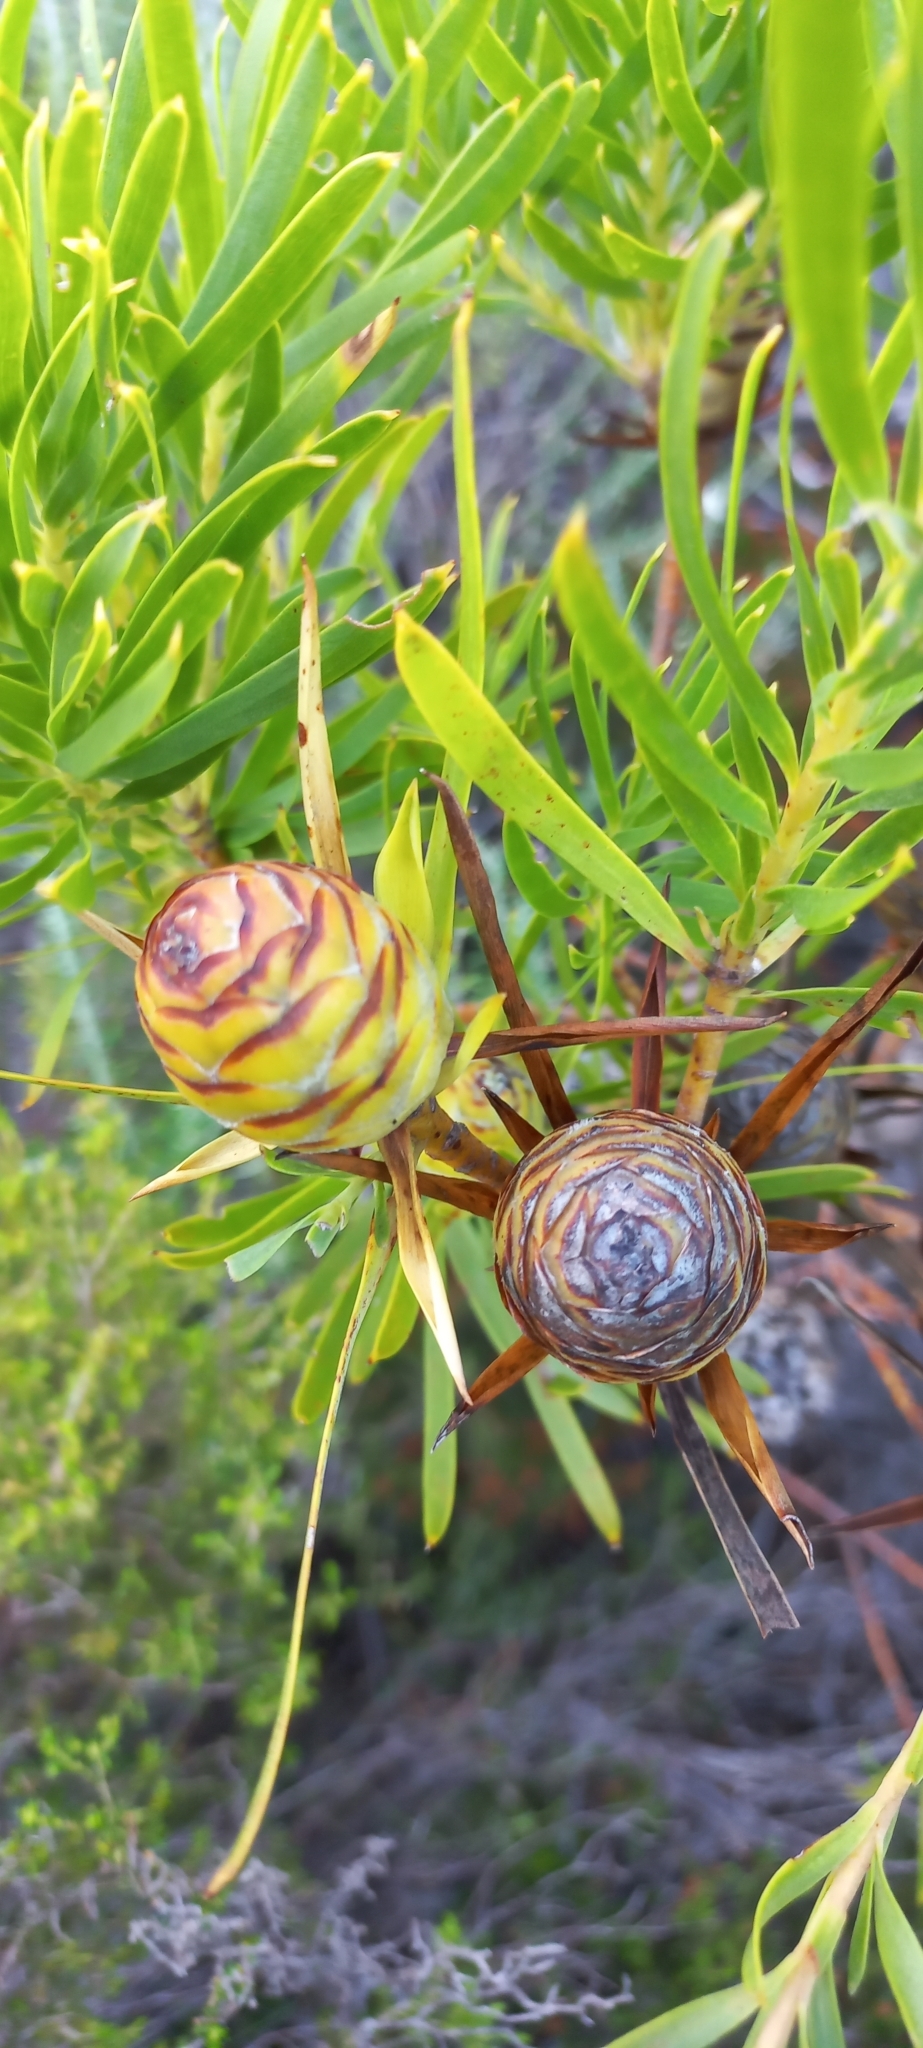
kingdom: Plantae
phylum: Tracheophyta
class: Magnoliopsida
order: Proteales
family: Proteaceae
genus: Leucadendron
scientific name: Leucadendron xanthoconus
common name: Sickle-leaf conebush
